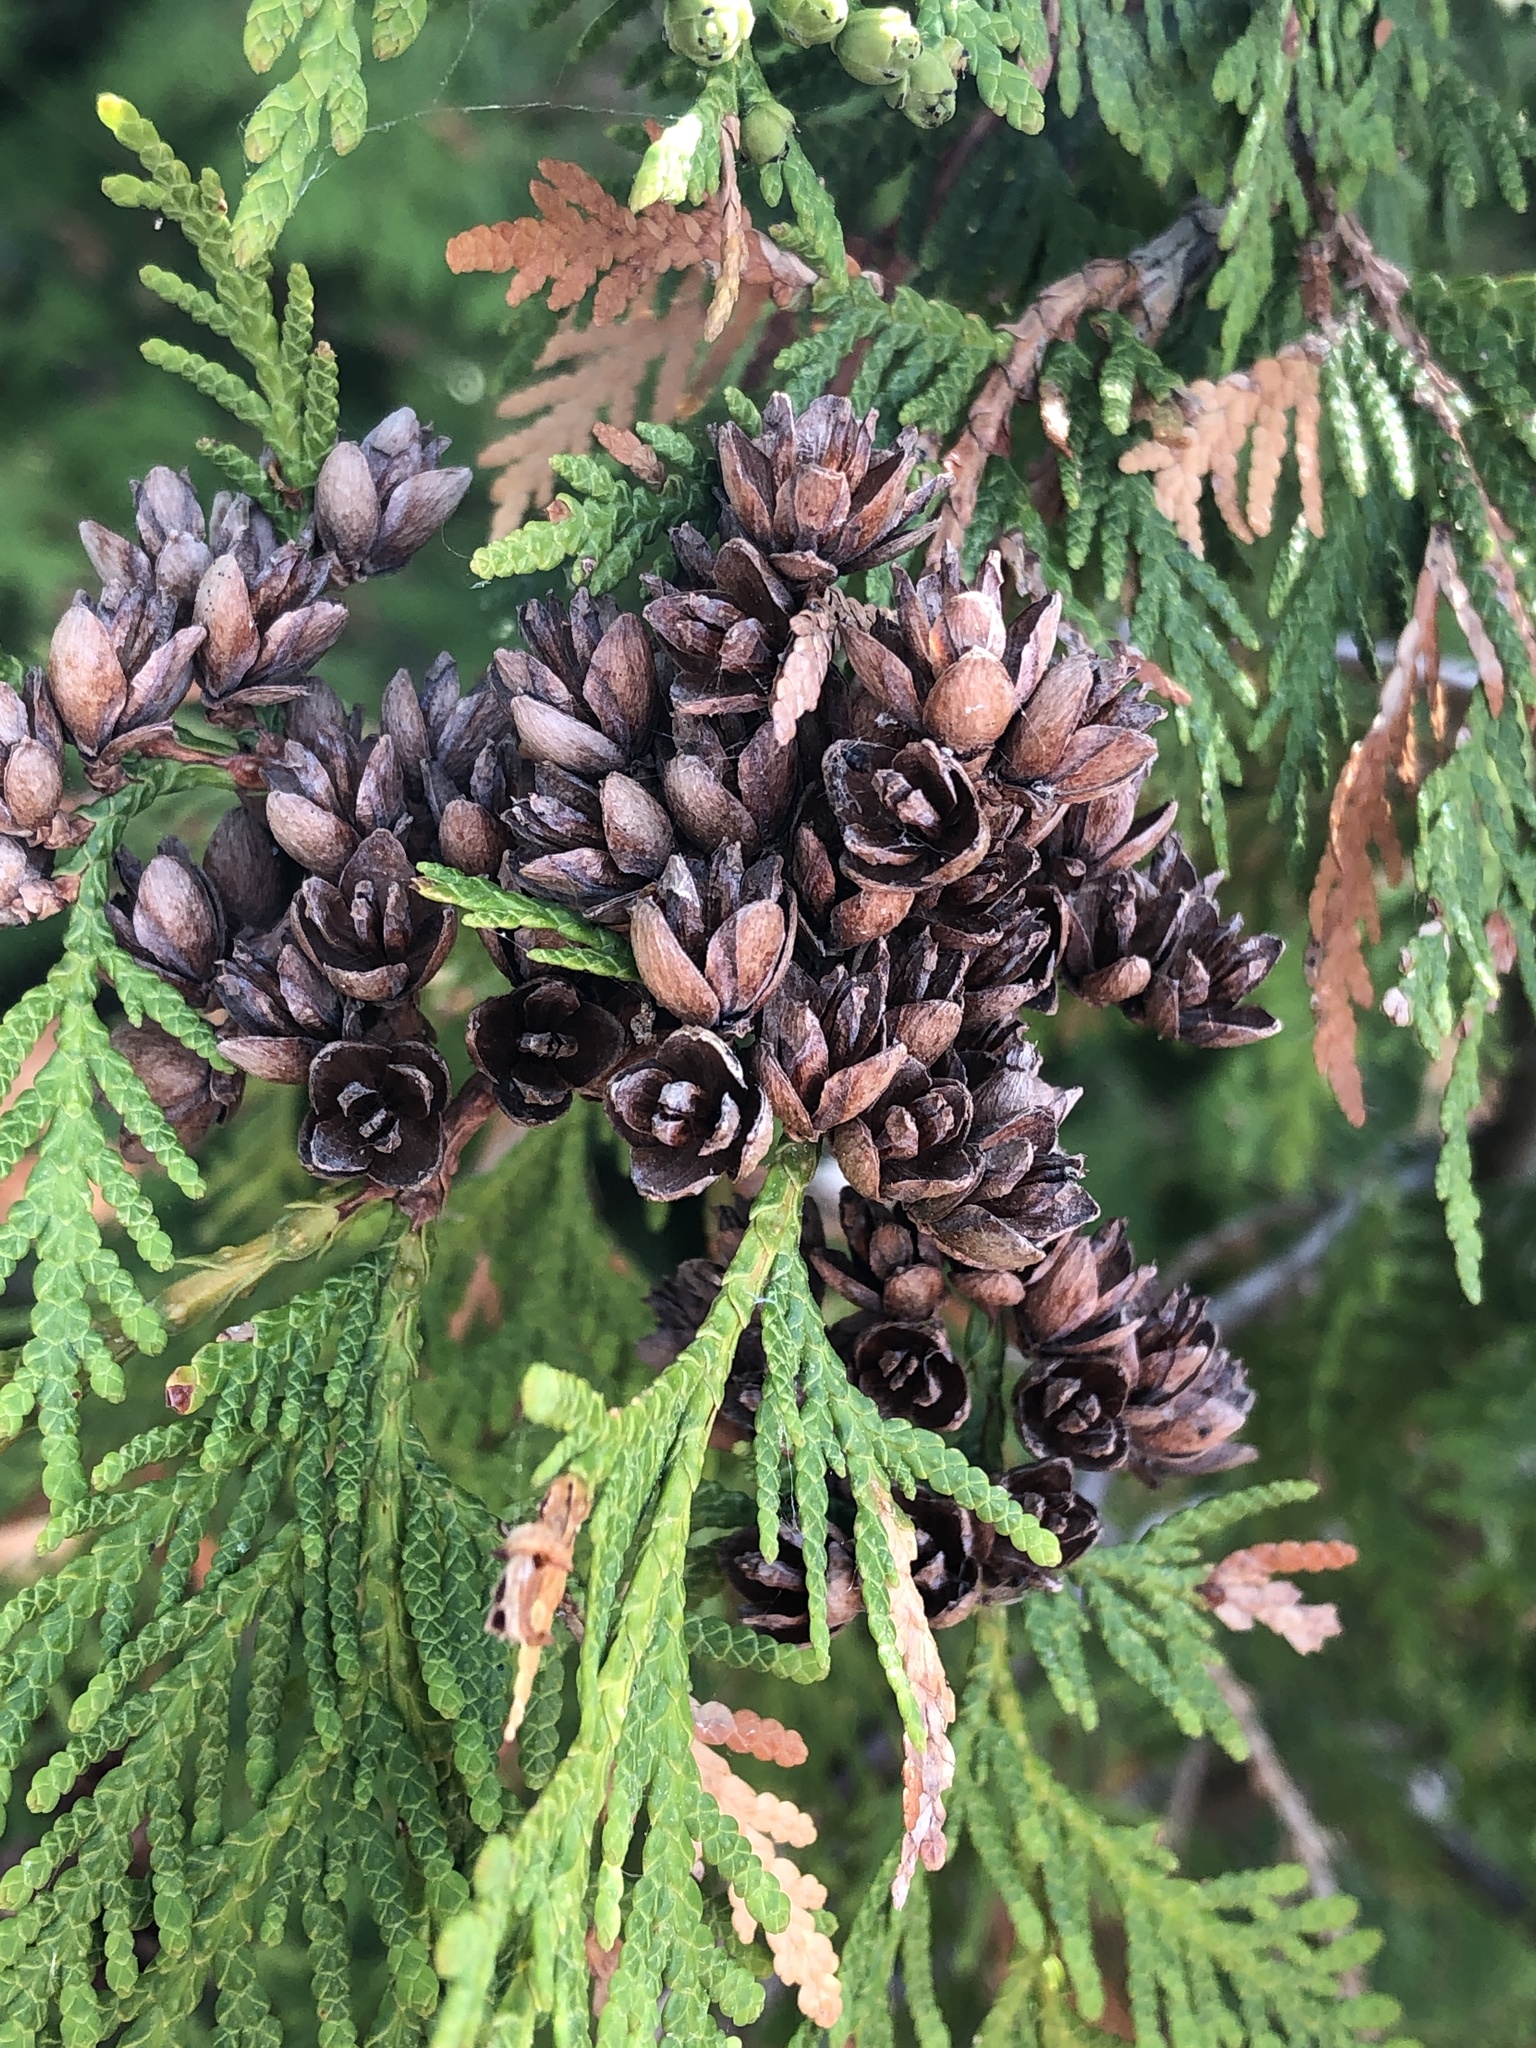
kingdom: Plantae
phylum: Tracheophyta
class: Pinopsida
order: Pinales
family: Cupressaceae
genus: Thuja
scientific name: Thuja occidentalis
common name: Northern white-cedar
